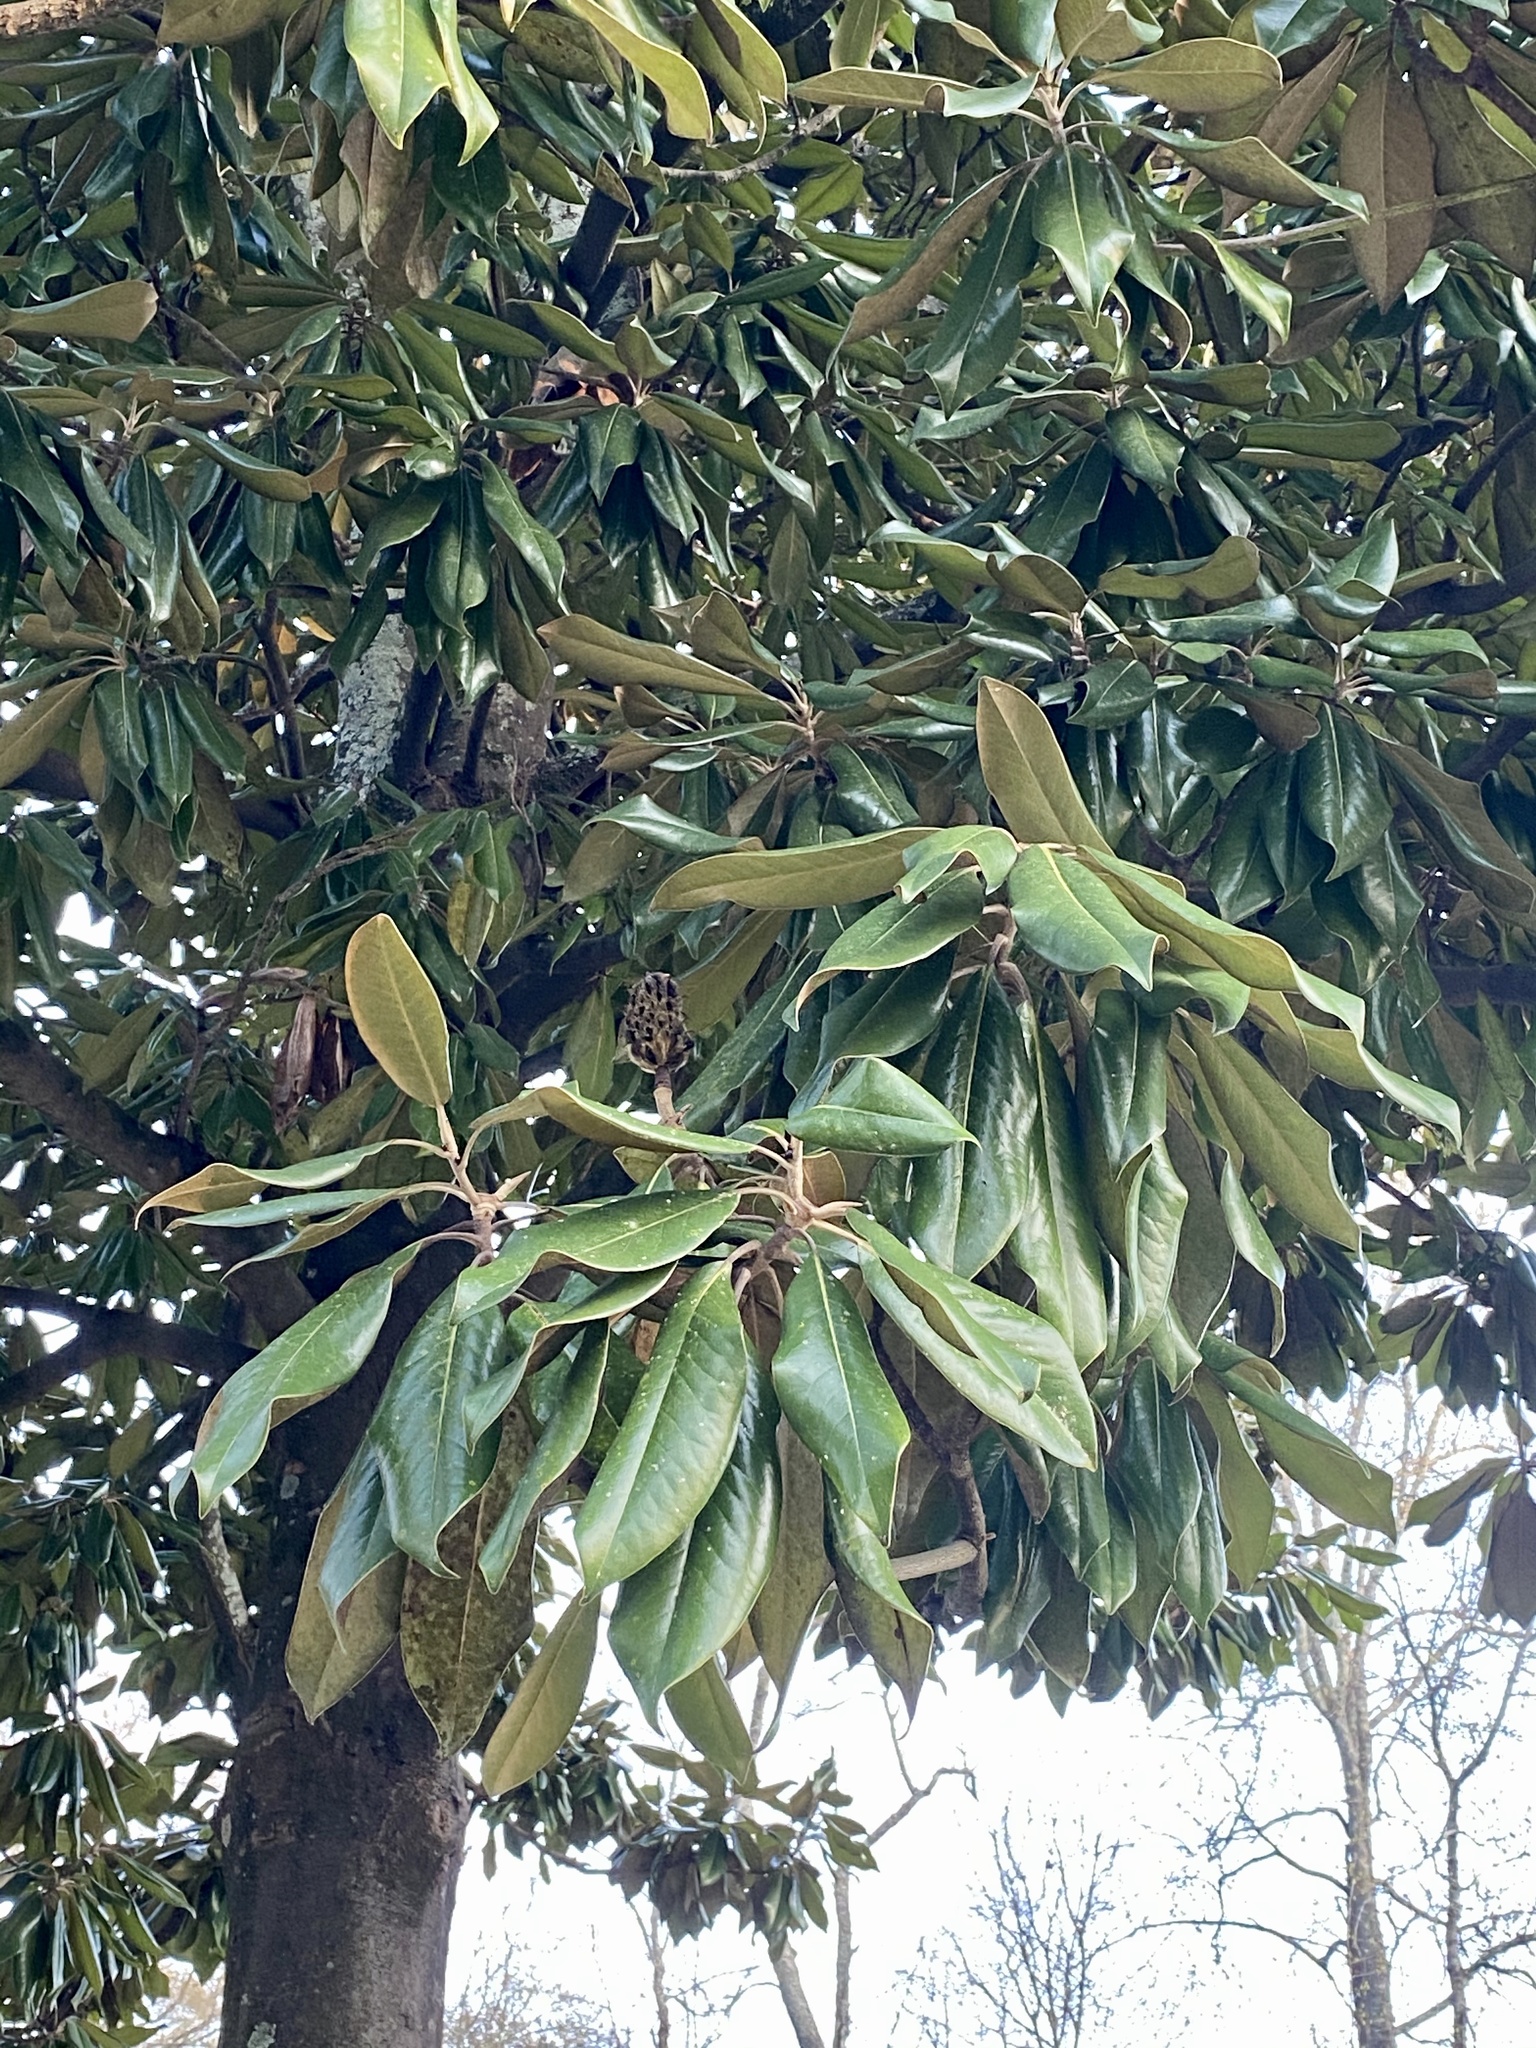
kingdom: Plantae
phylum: Tracheophyta
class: Magnoliopsida
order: Magnoliales
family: Magnoliaceae
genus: Magnolia
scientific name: Magnolia grandiflora
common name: Southern magnolia
